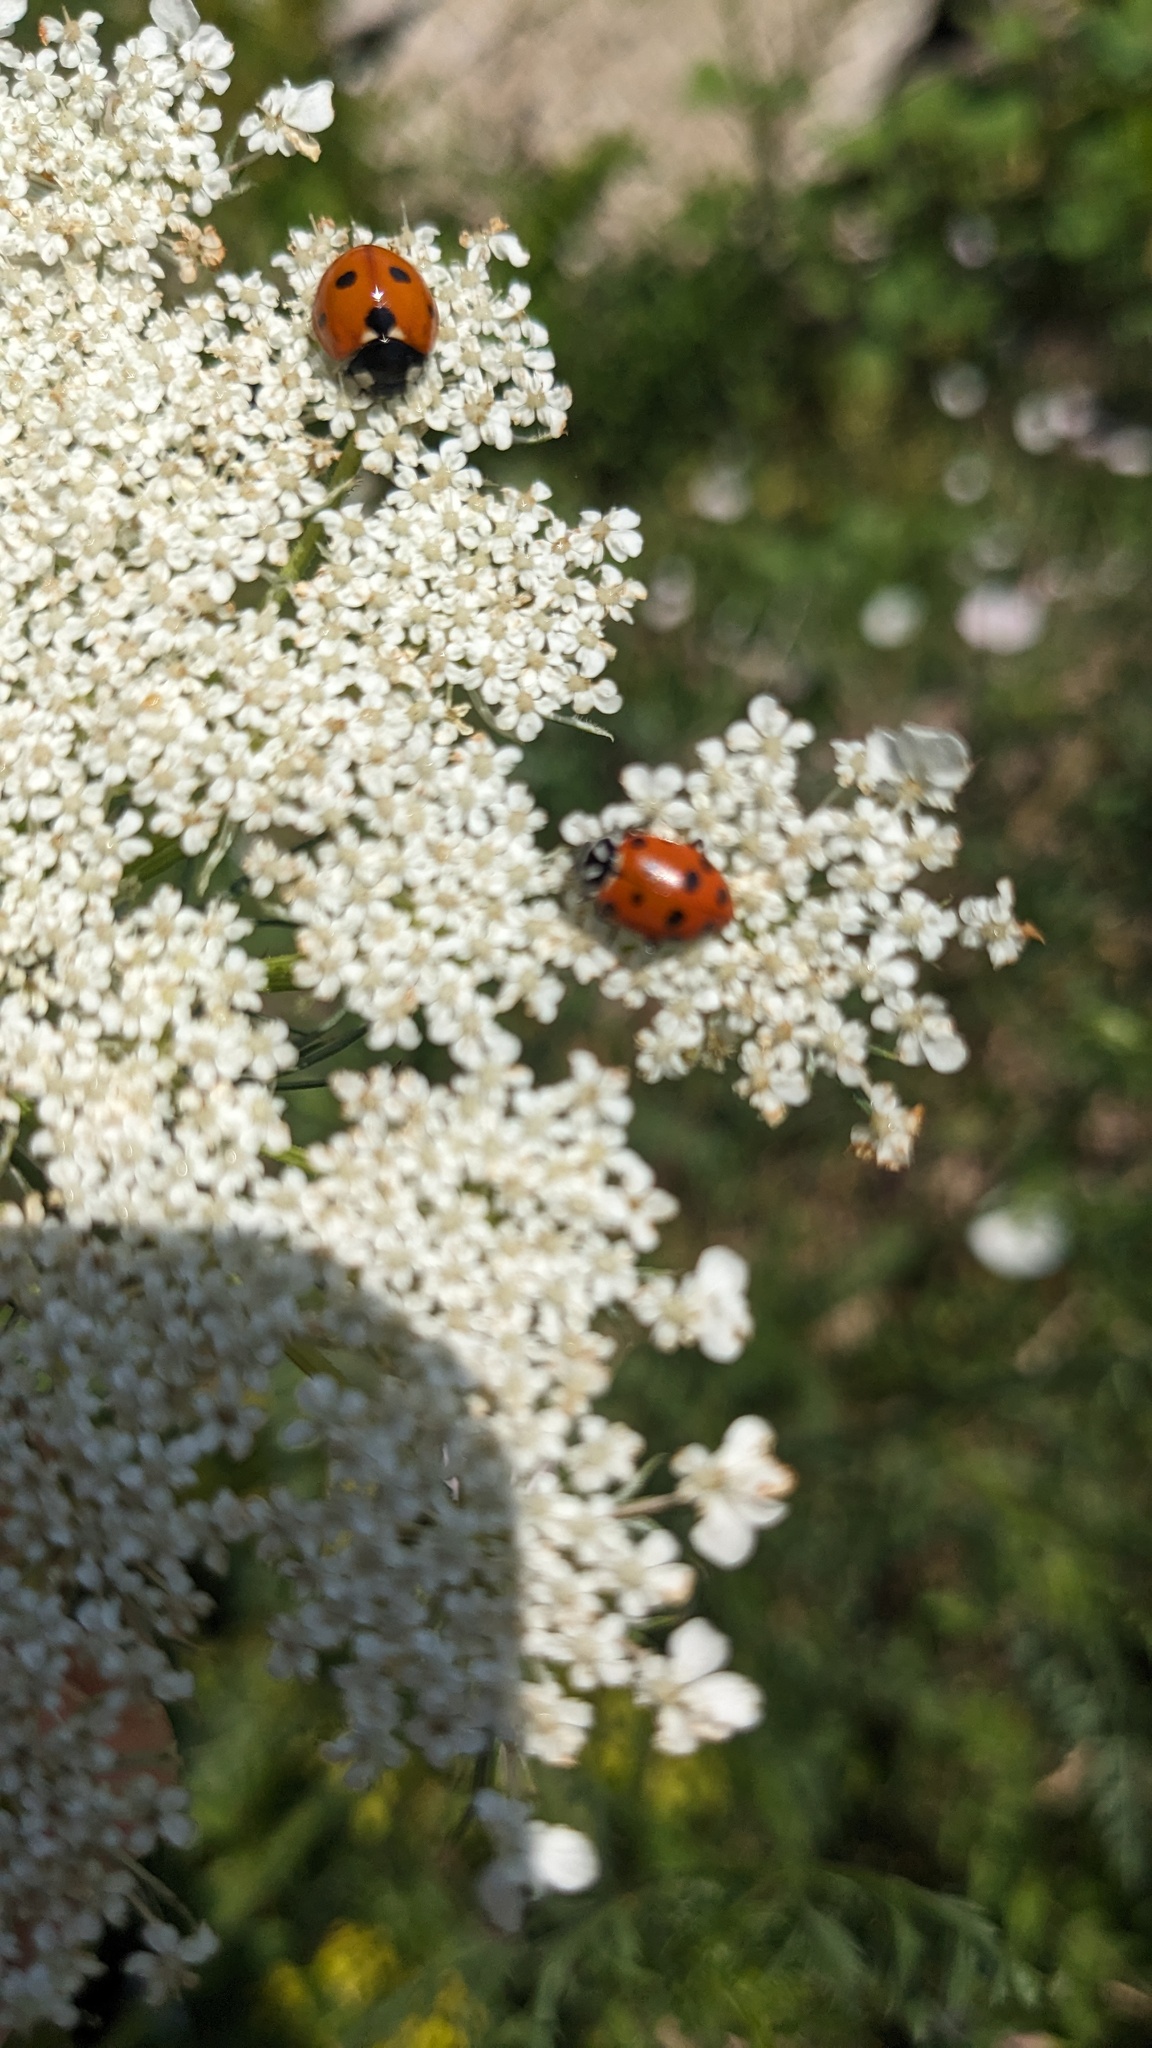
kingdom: Animalia
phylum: Arthropoda
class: Insecta
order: Coleoptera
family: Coccinellidae
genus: Hippodamia
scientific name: Hippodamia convergens
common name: Convergent lady beetle
